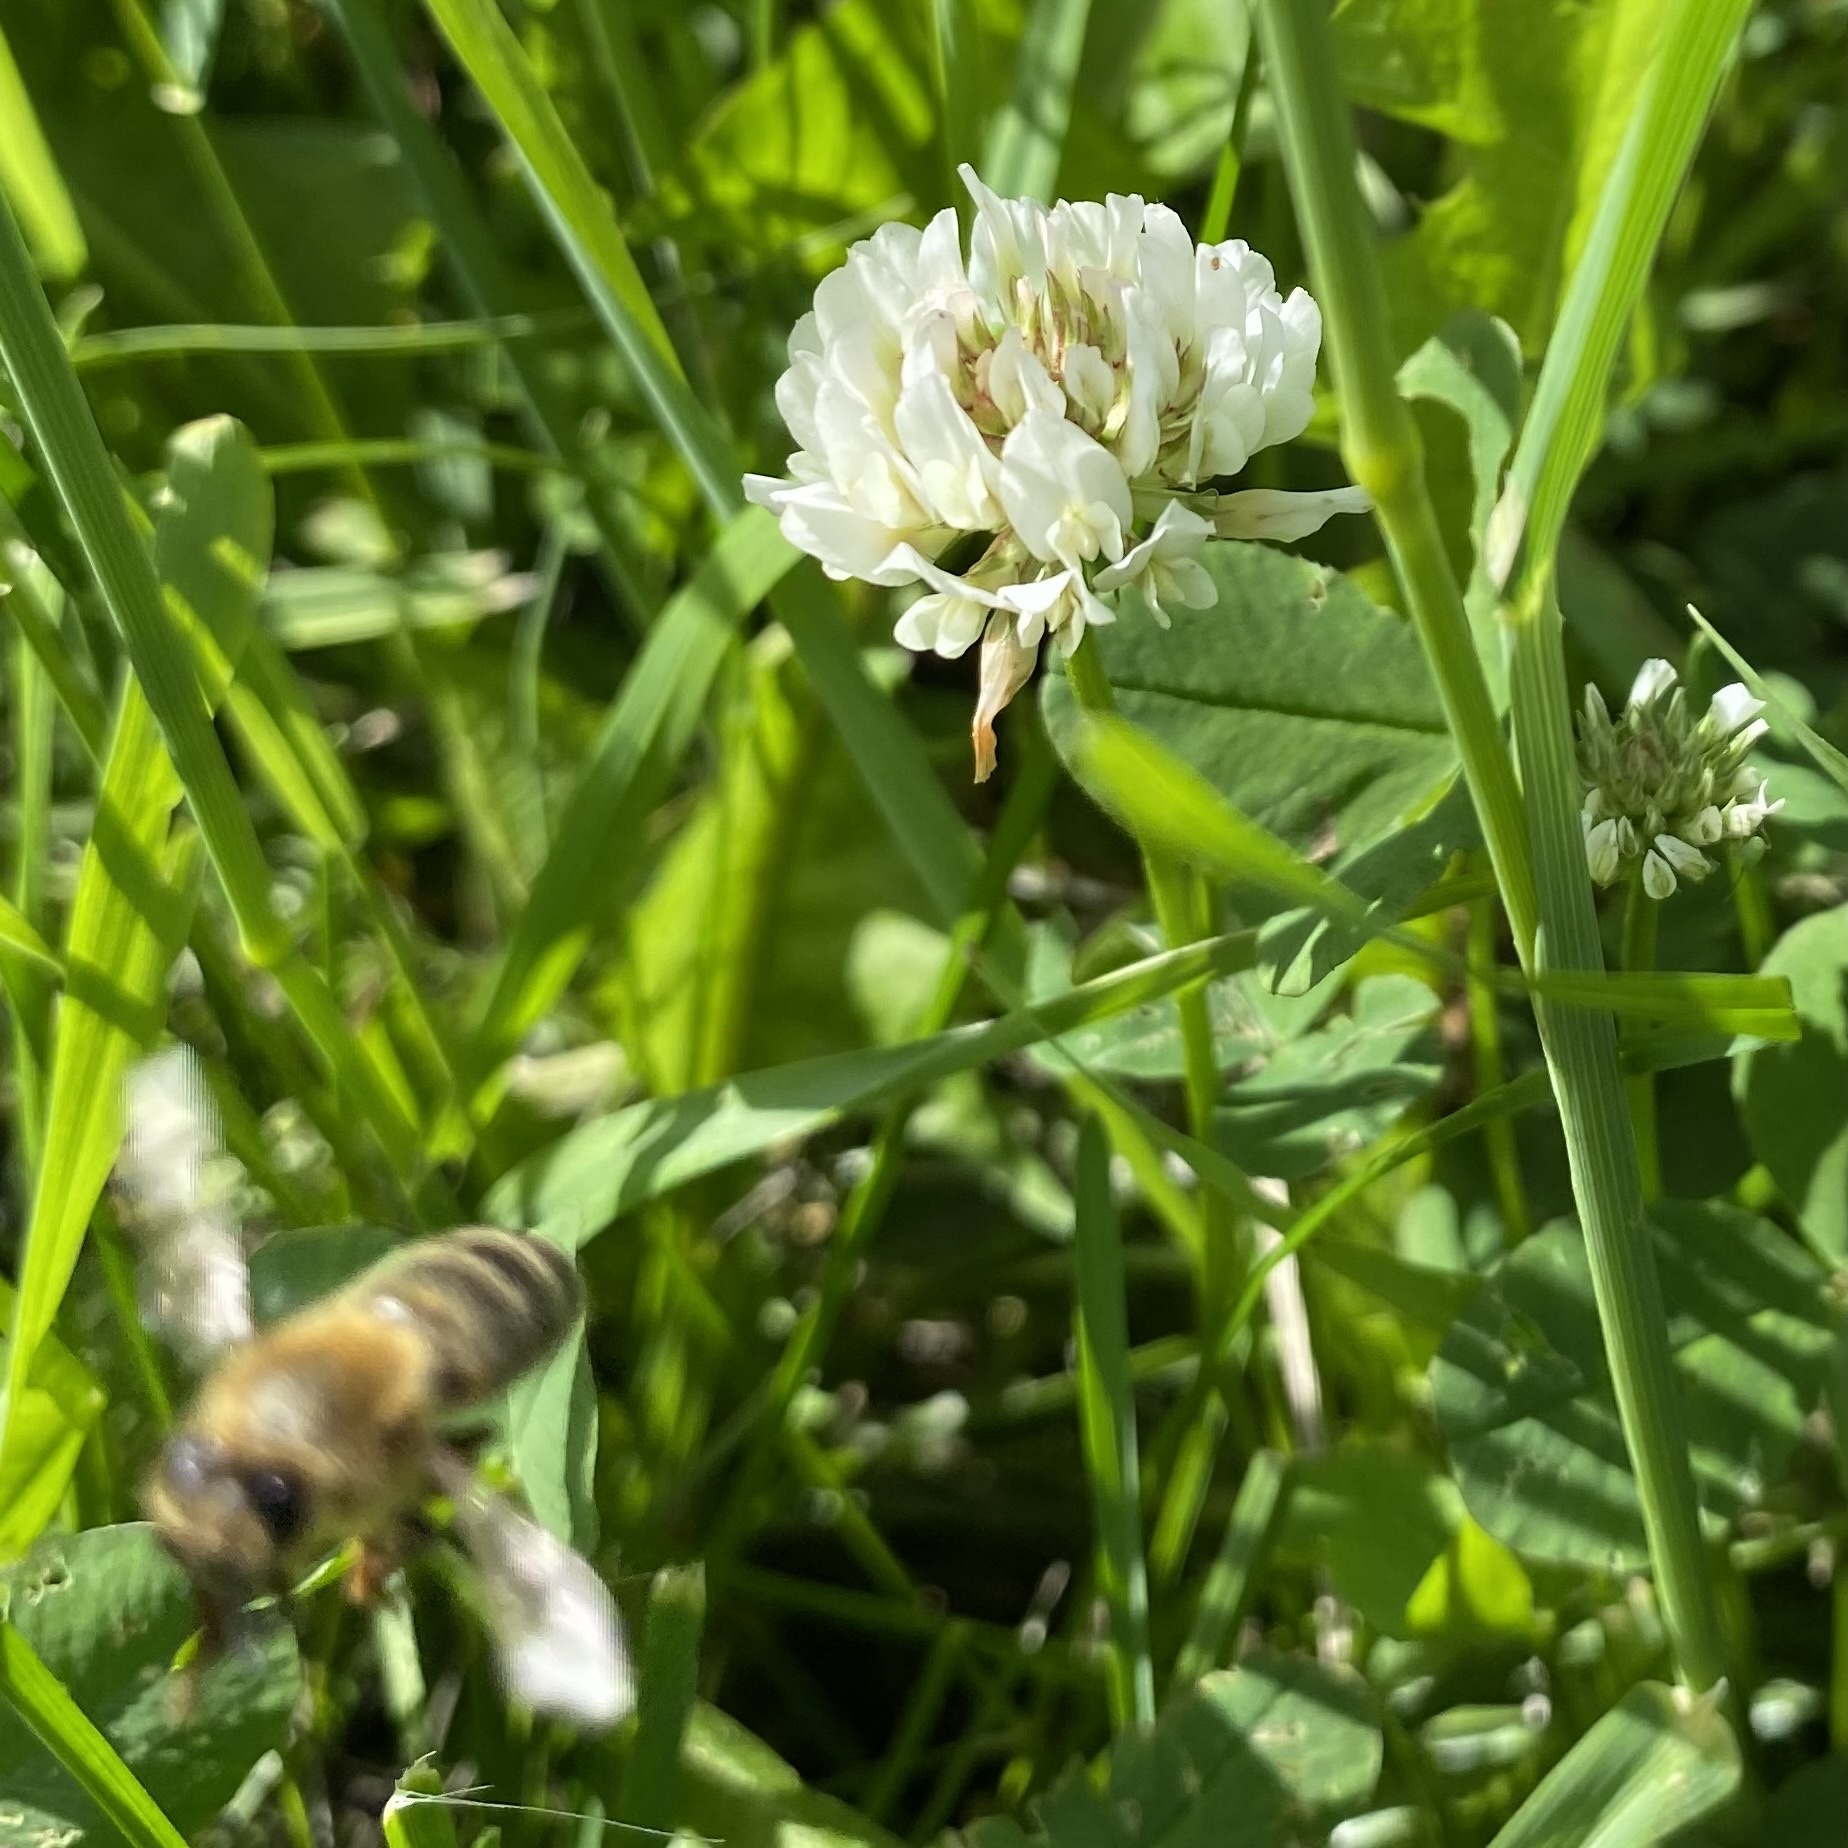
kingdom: Plantae
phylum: Tracheophyta
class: Magnoliopsida
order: Fabales
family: Fabaceae
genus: Trifolium
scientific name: Trifolium repens
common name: White clover
